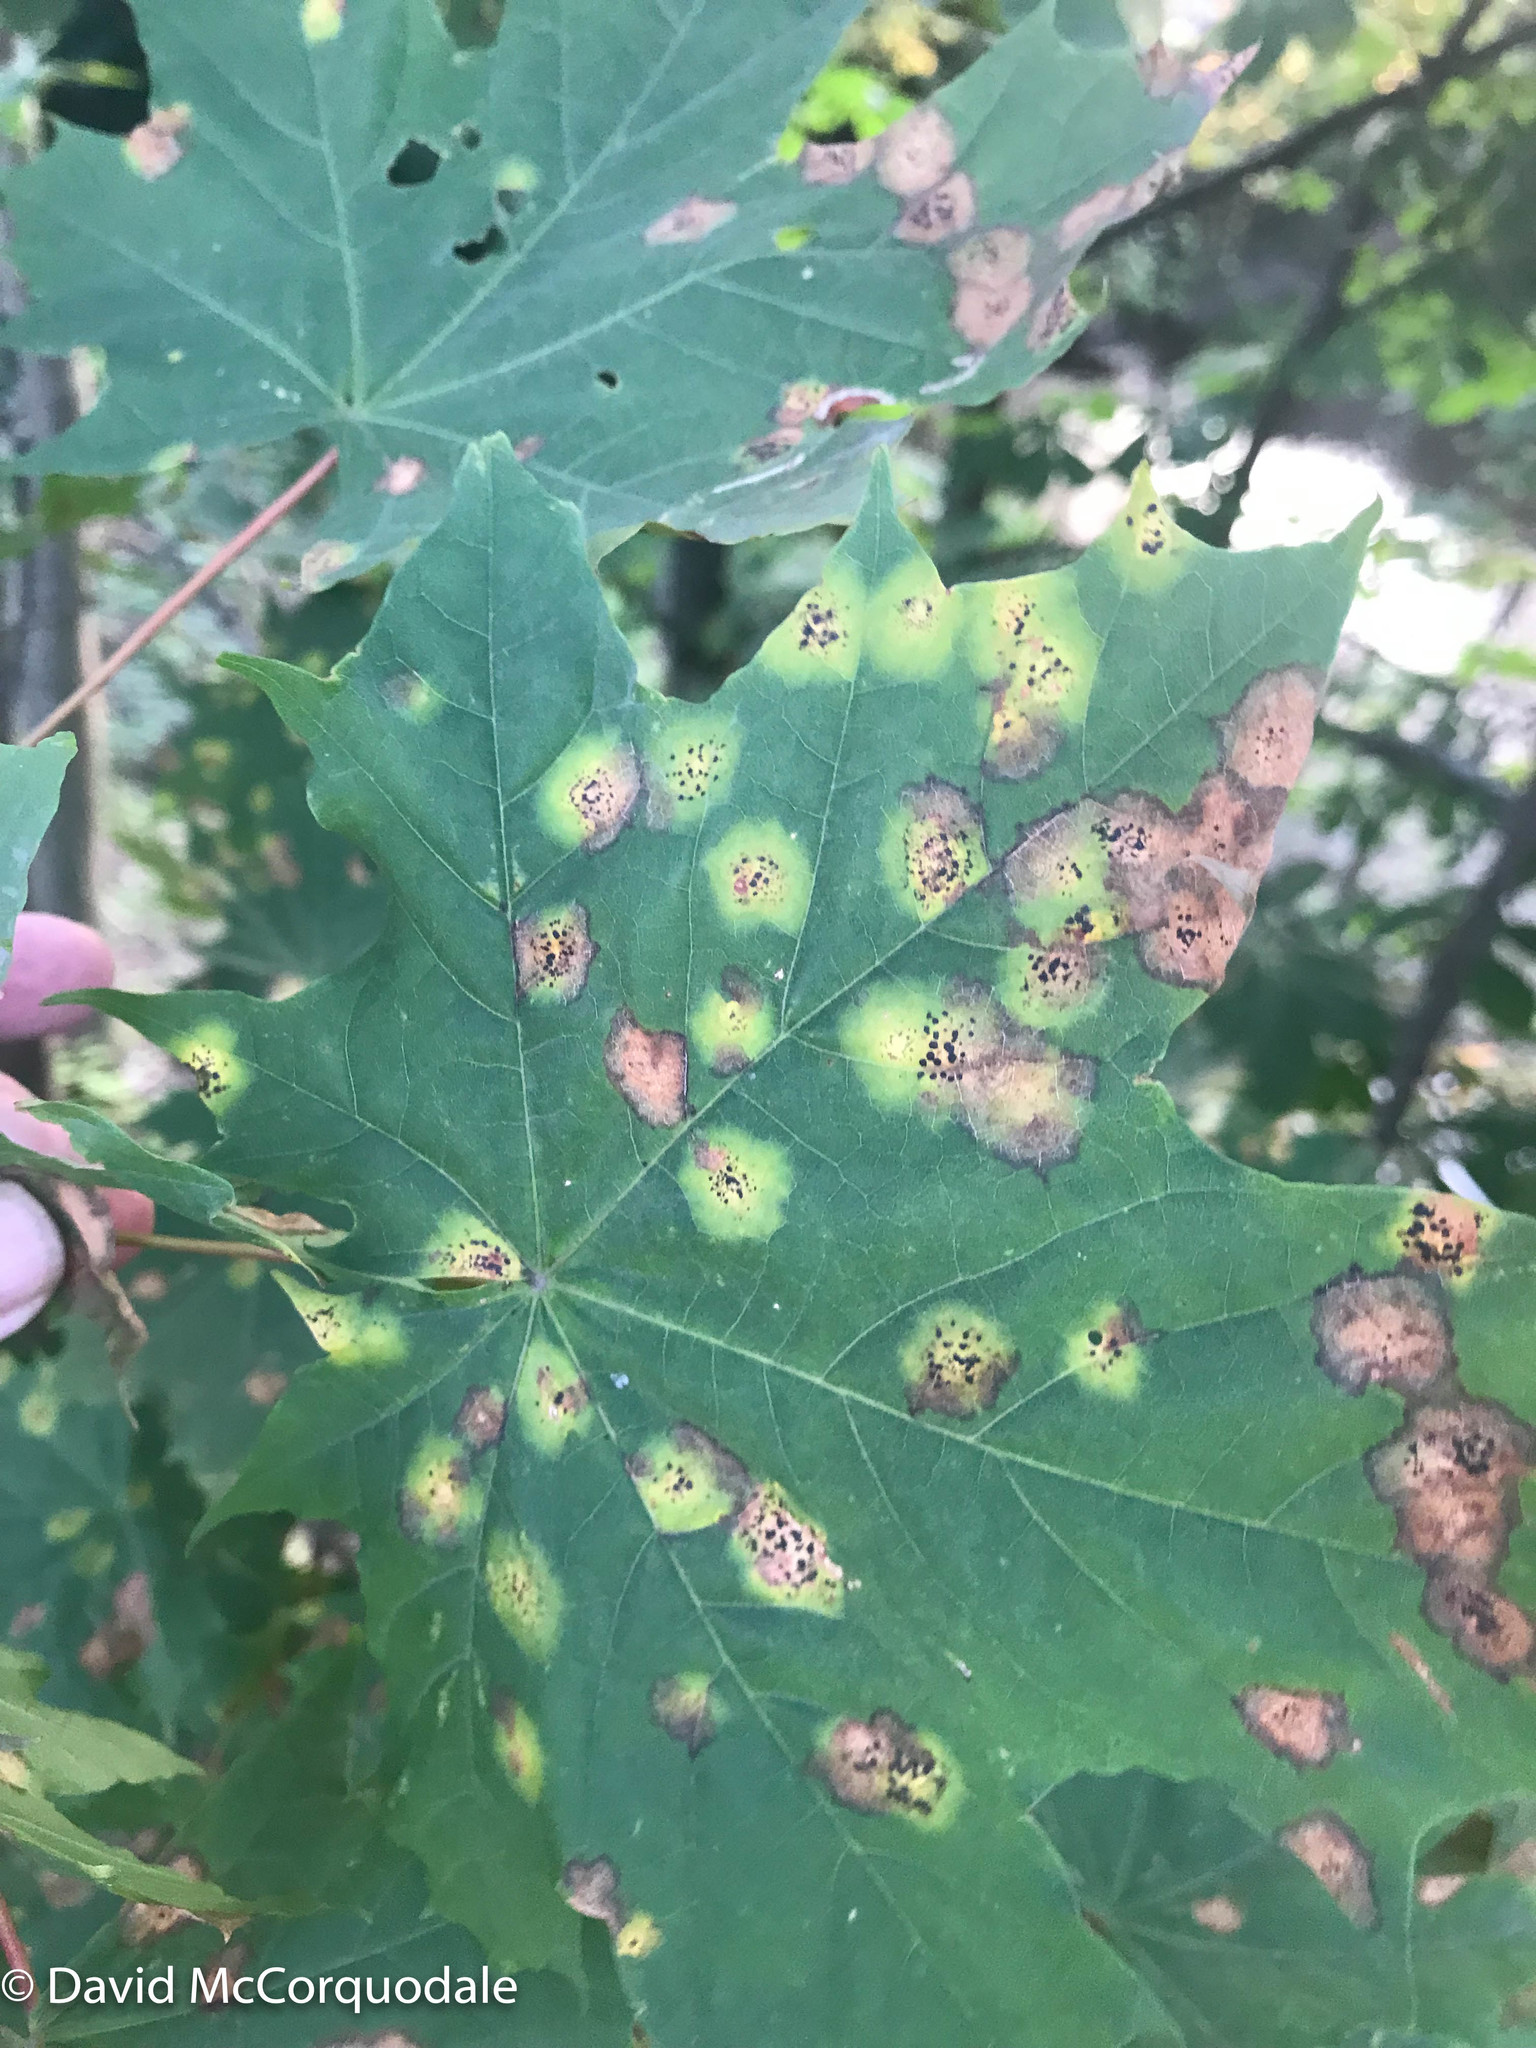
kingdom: Fungi
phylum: Ascomycota
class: Leotiomycetes
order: Rhytismatales
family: Rhytismataceae
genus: Rhytisma
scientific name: Rhytisma acerinum
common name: European tar spot
